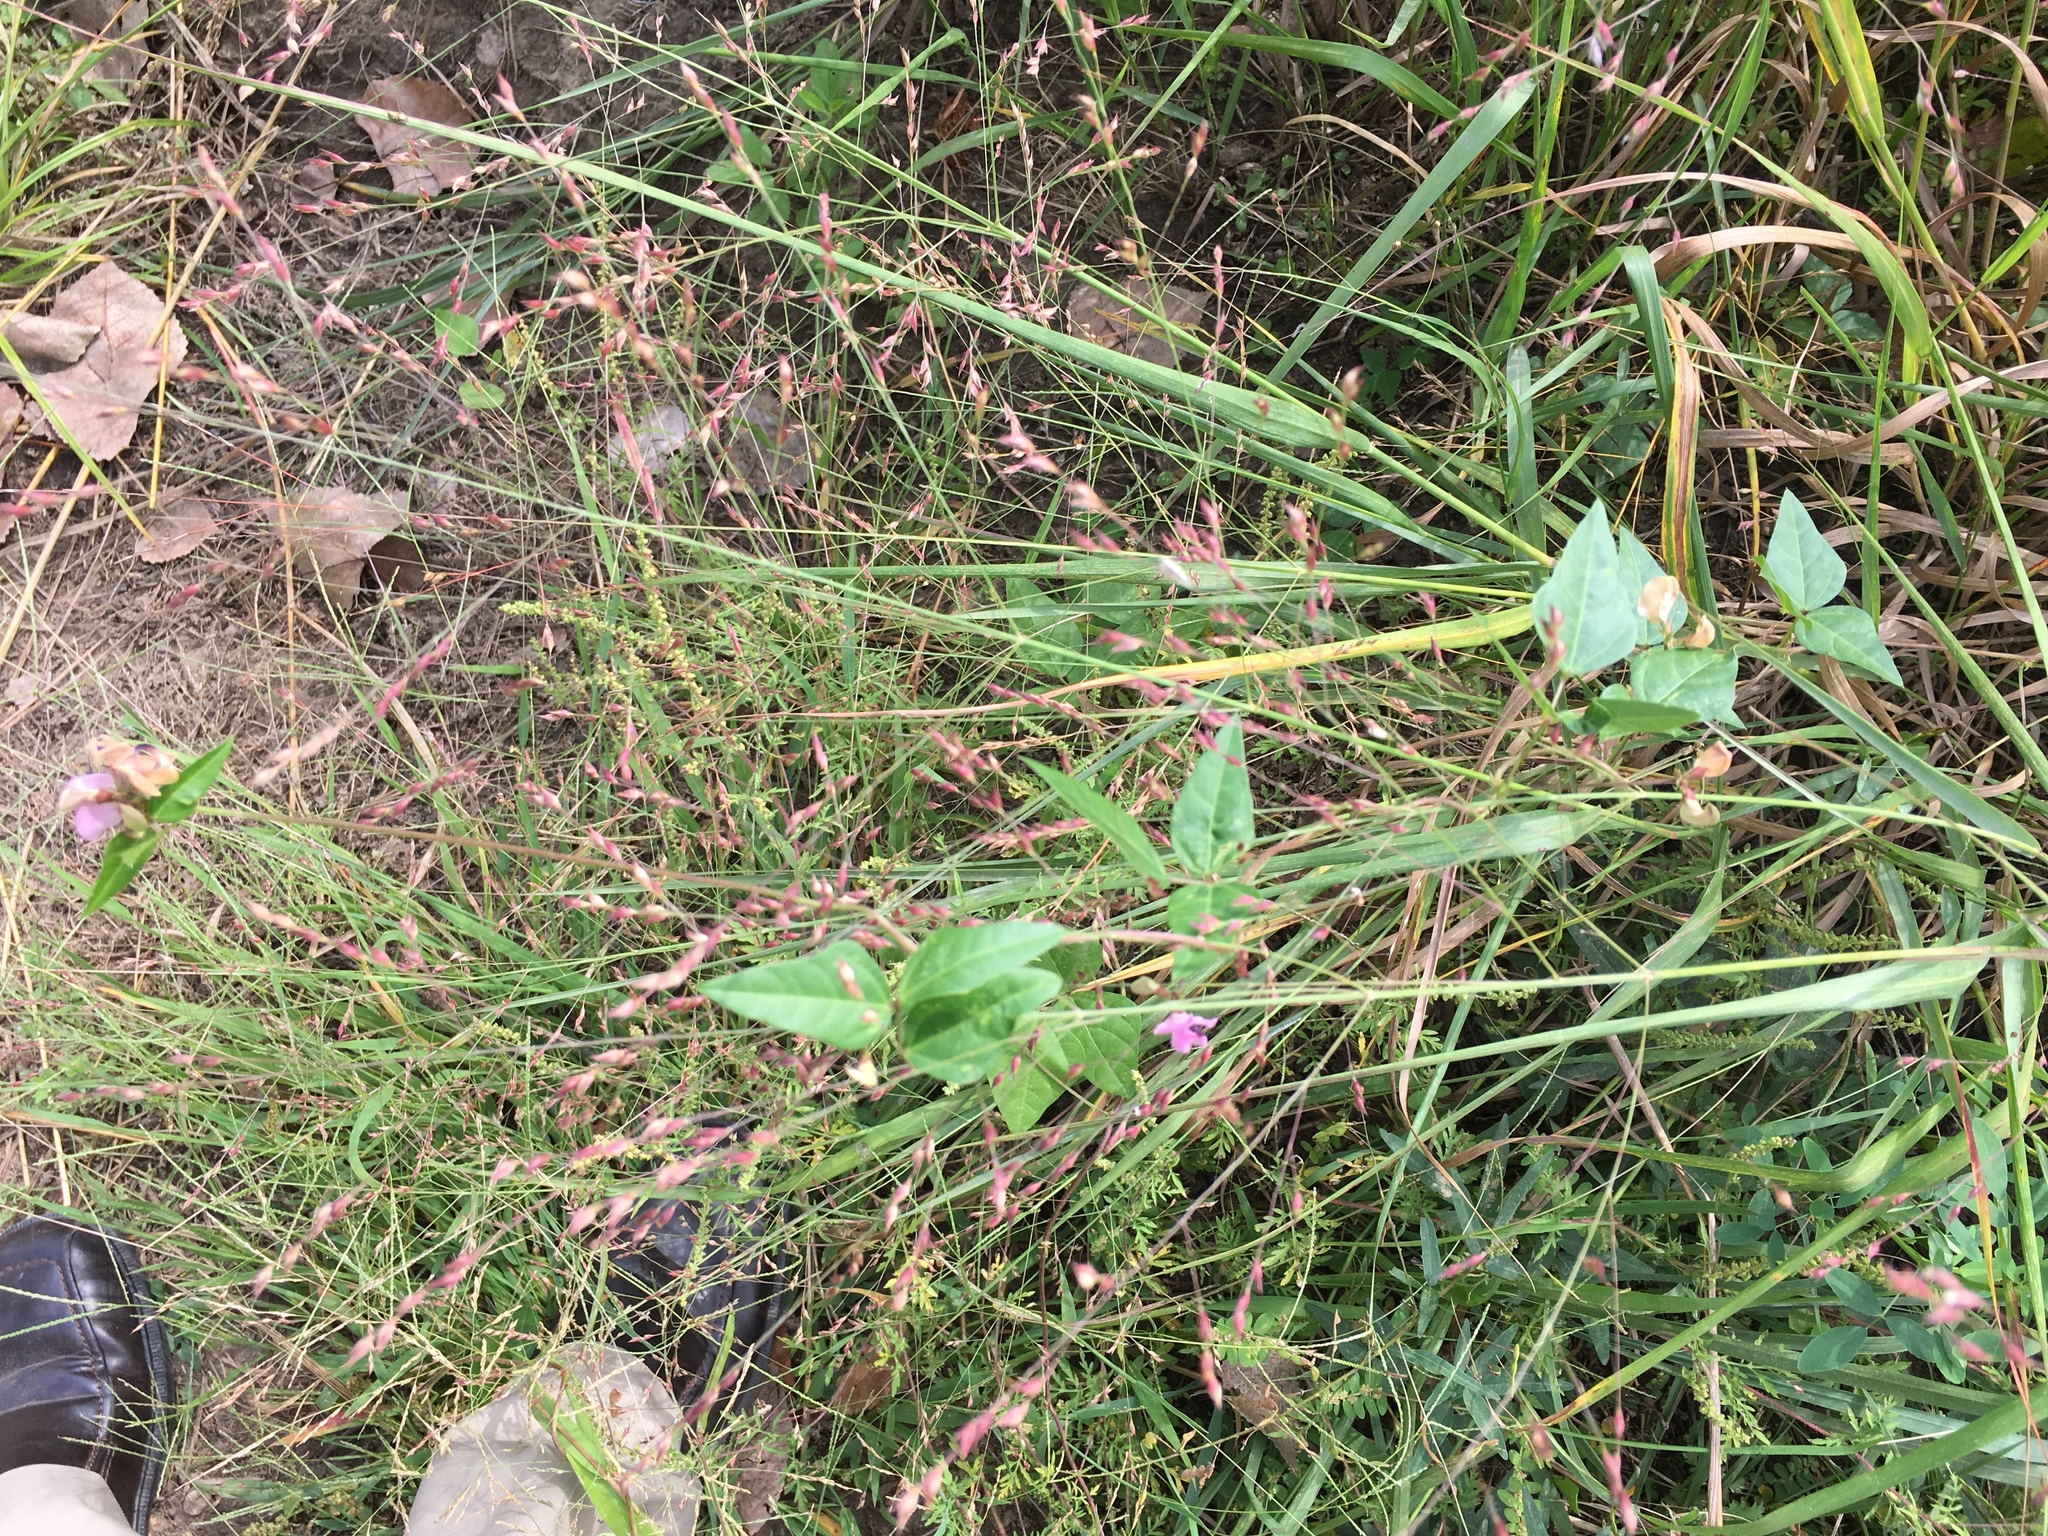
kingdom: Plantae
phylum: Tracheophyta
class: Magnoliopsida
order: Fabales
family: Fabaceae
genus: Strophostyles
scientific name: Strophostyles helvola
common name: Trailing wild bean
